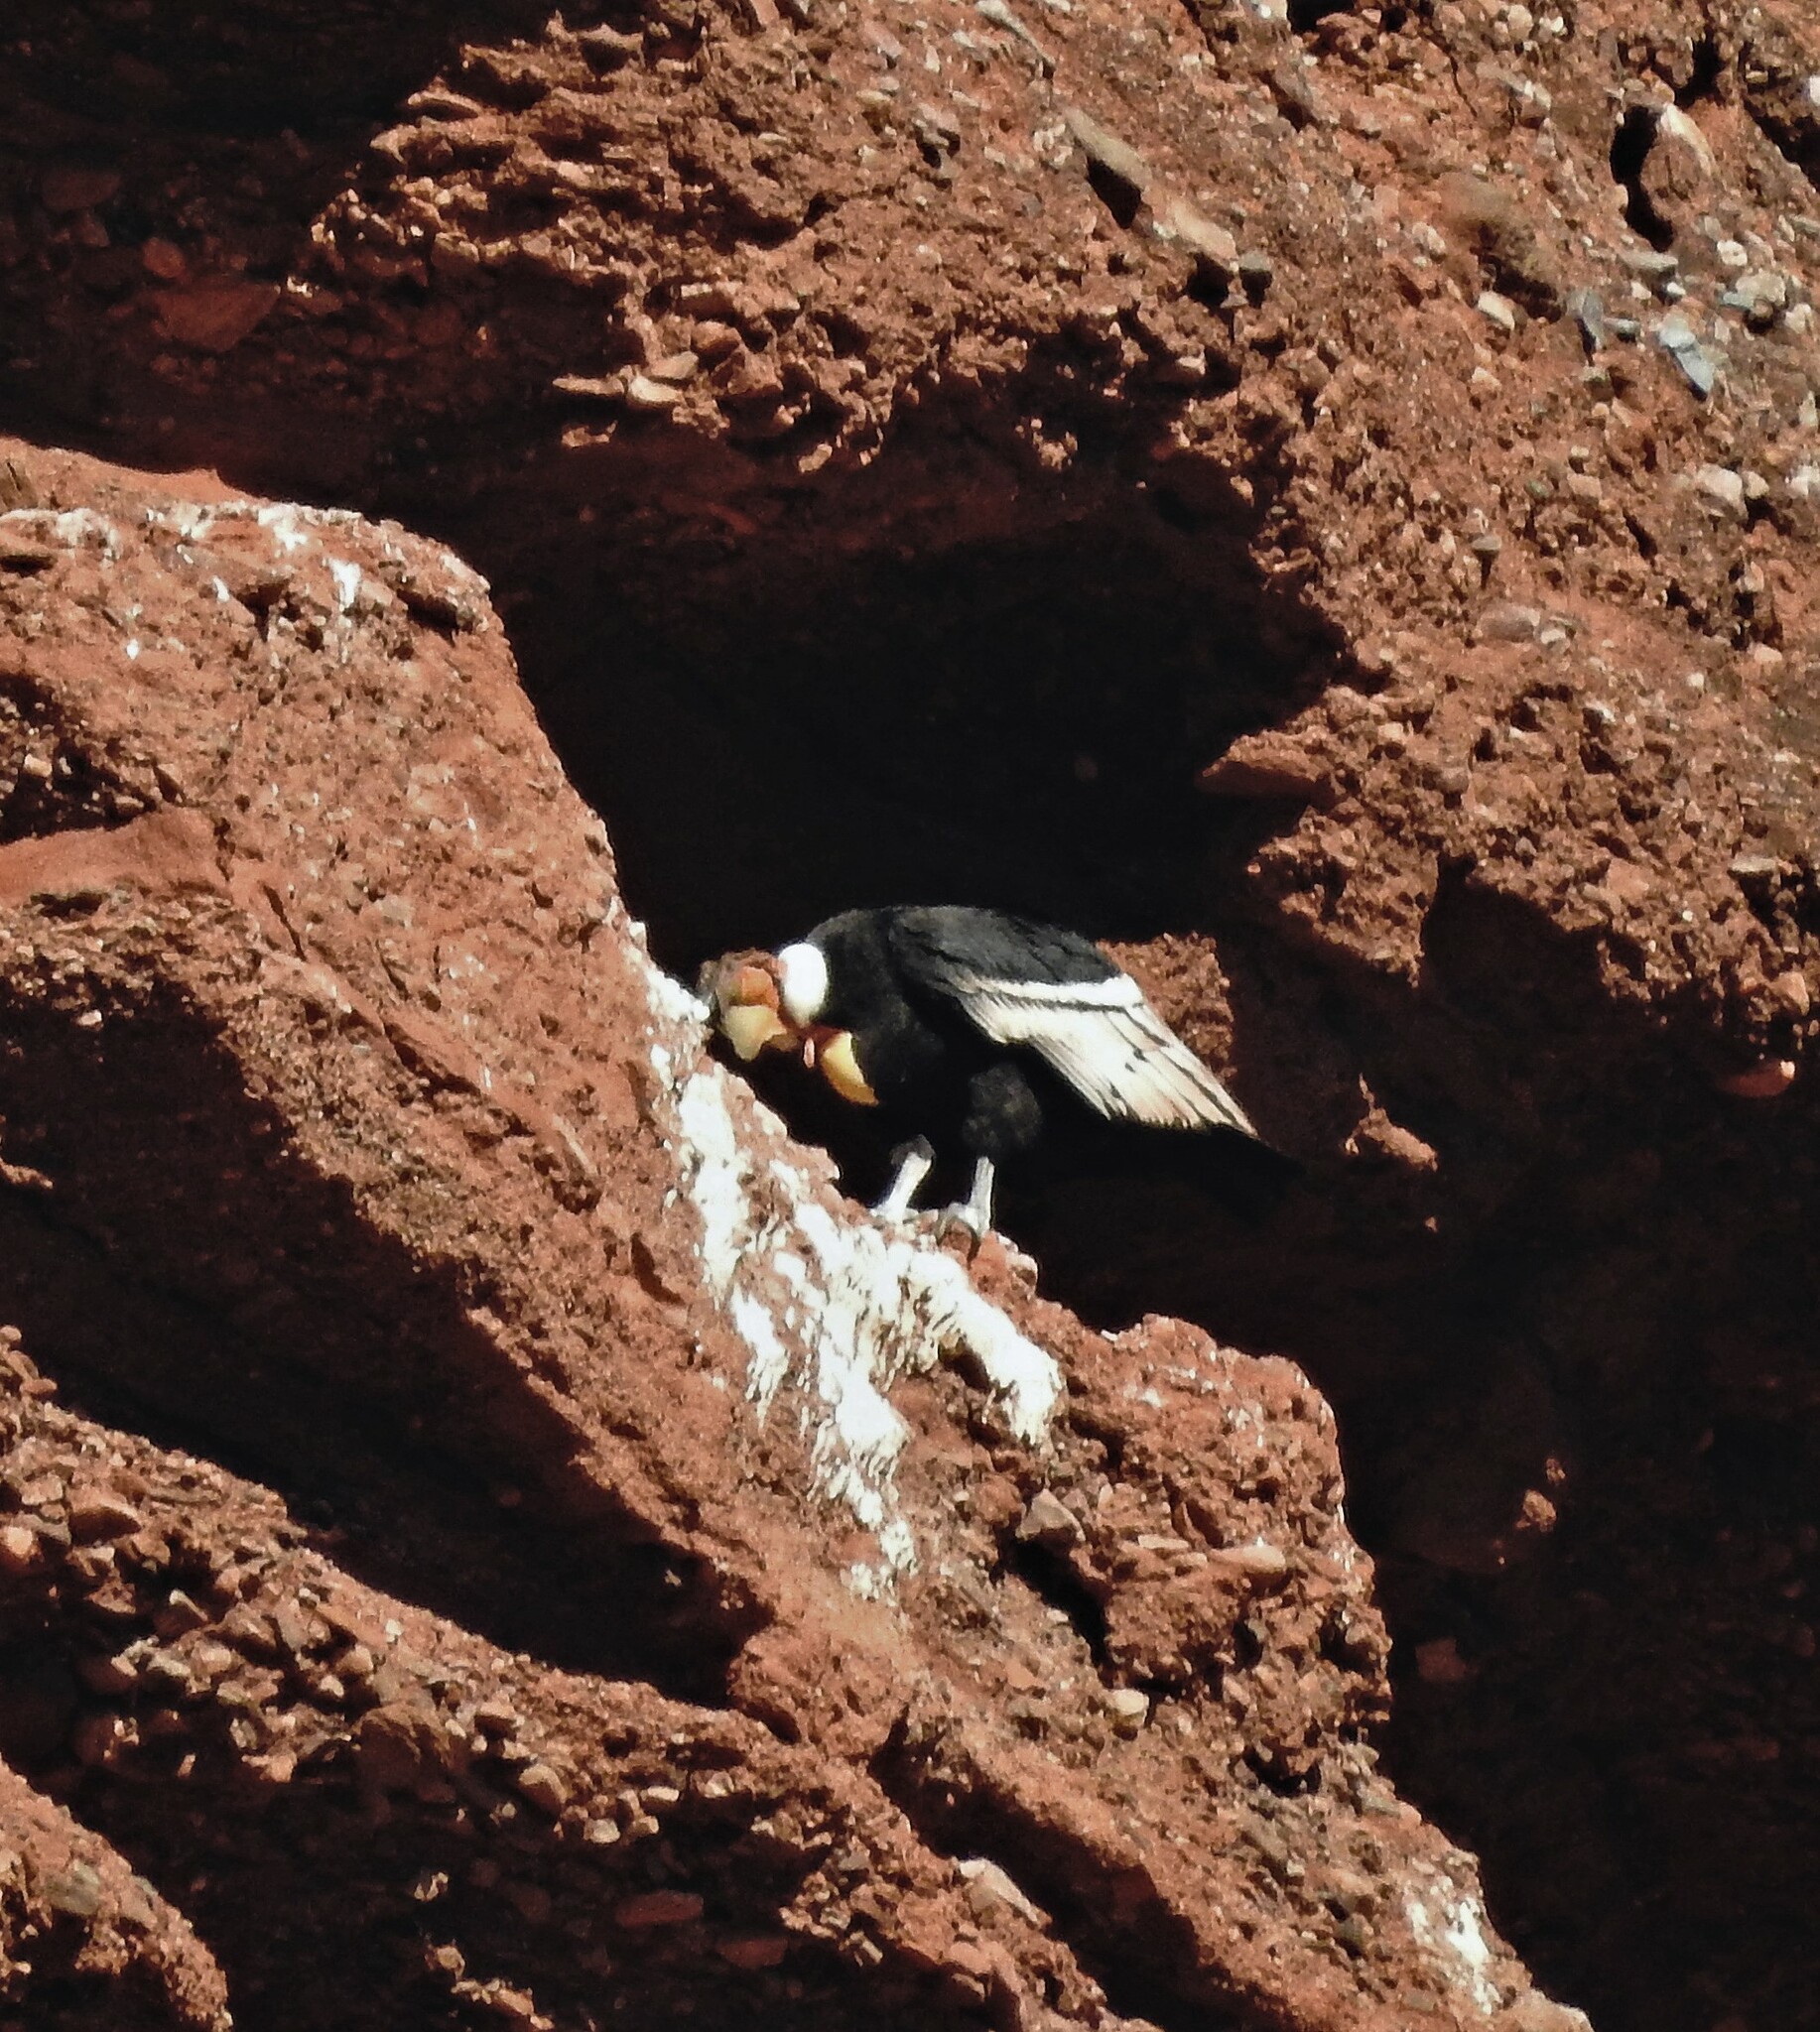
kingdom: Animalia
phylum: Chordata
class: Aves
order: Accipitriformes
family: Cathartidae
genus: Vultur
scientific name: Vultur gryphus
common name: Andean condor
